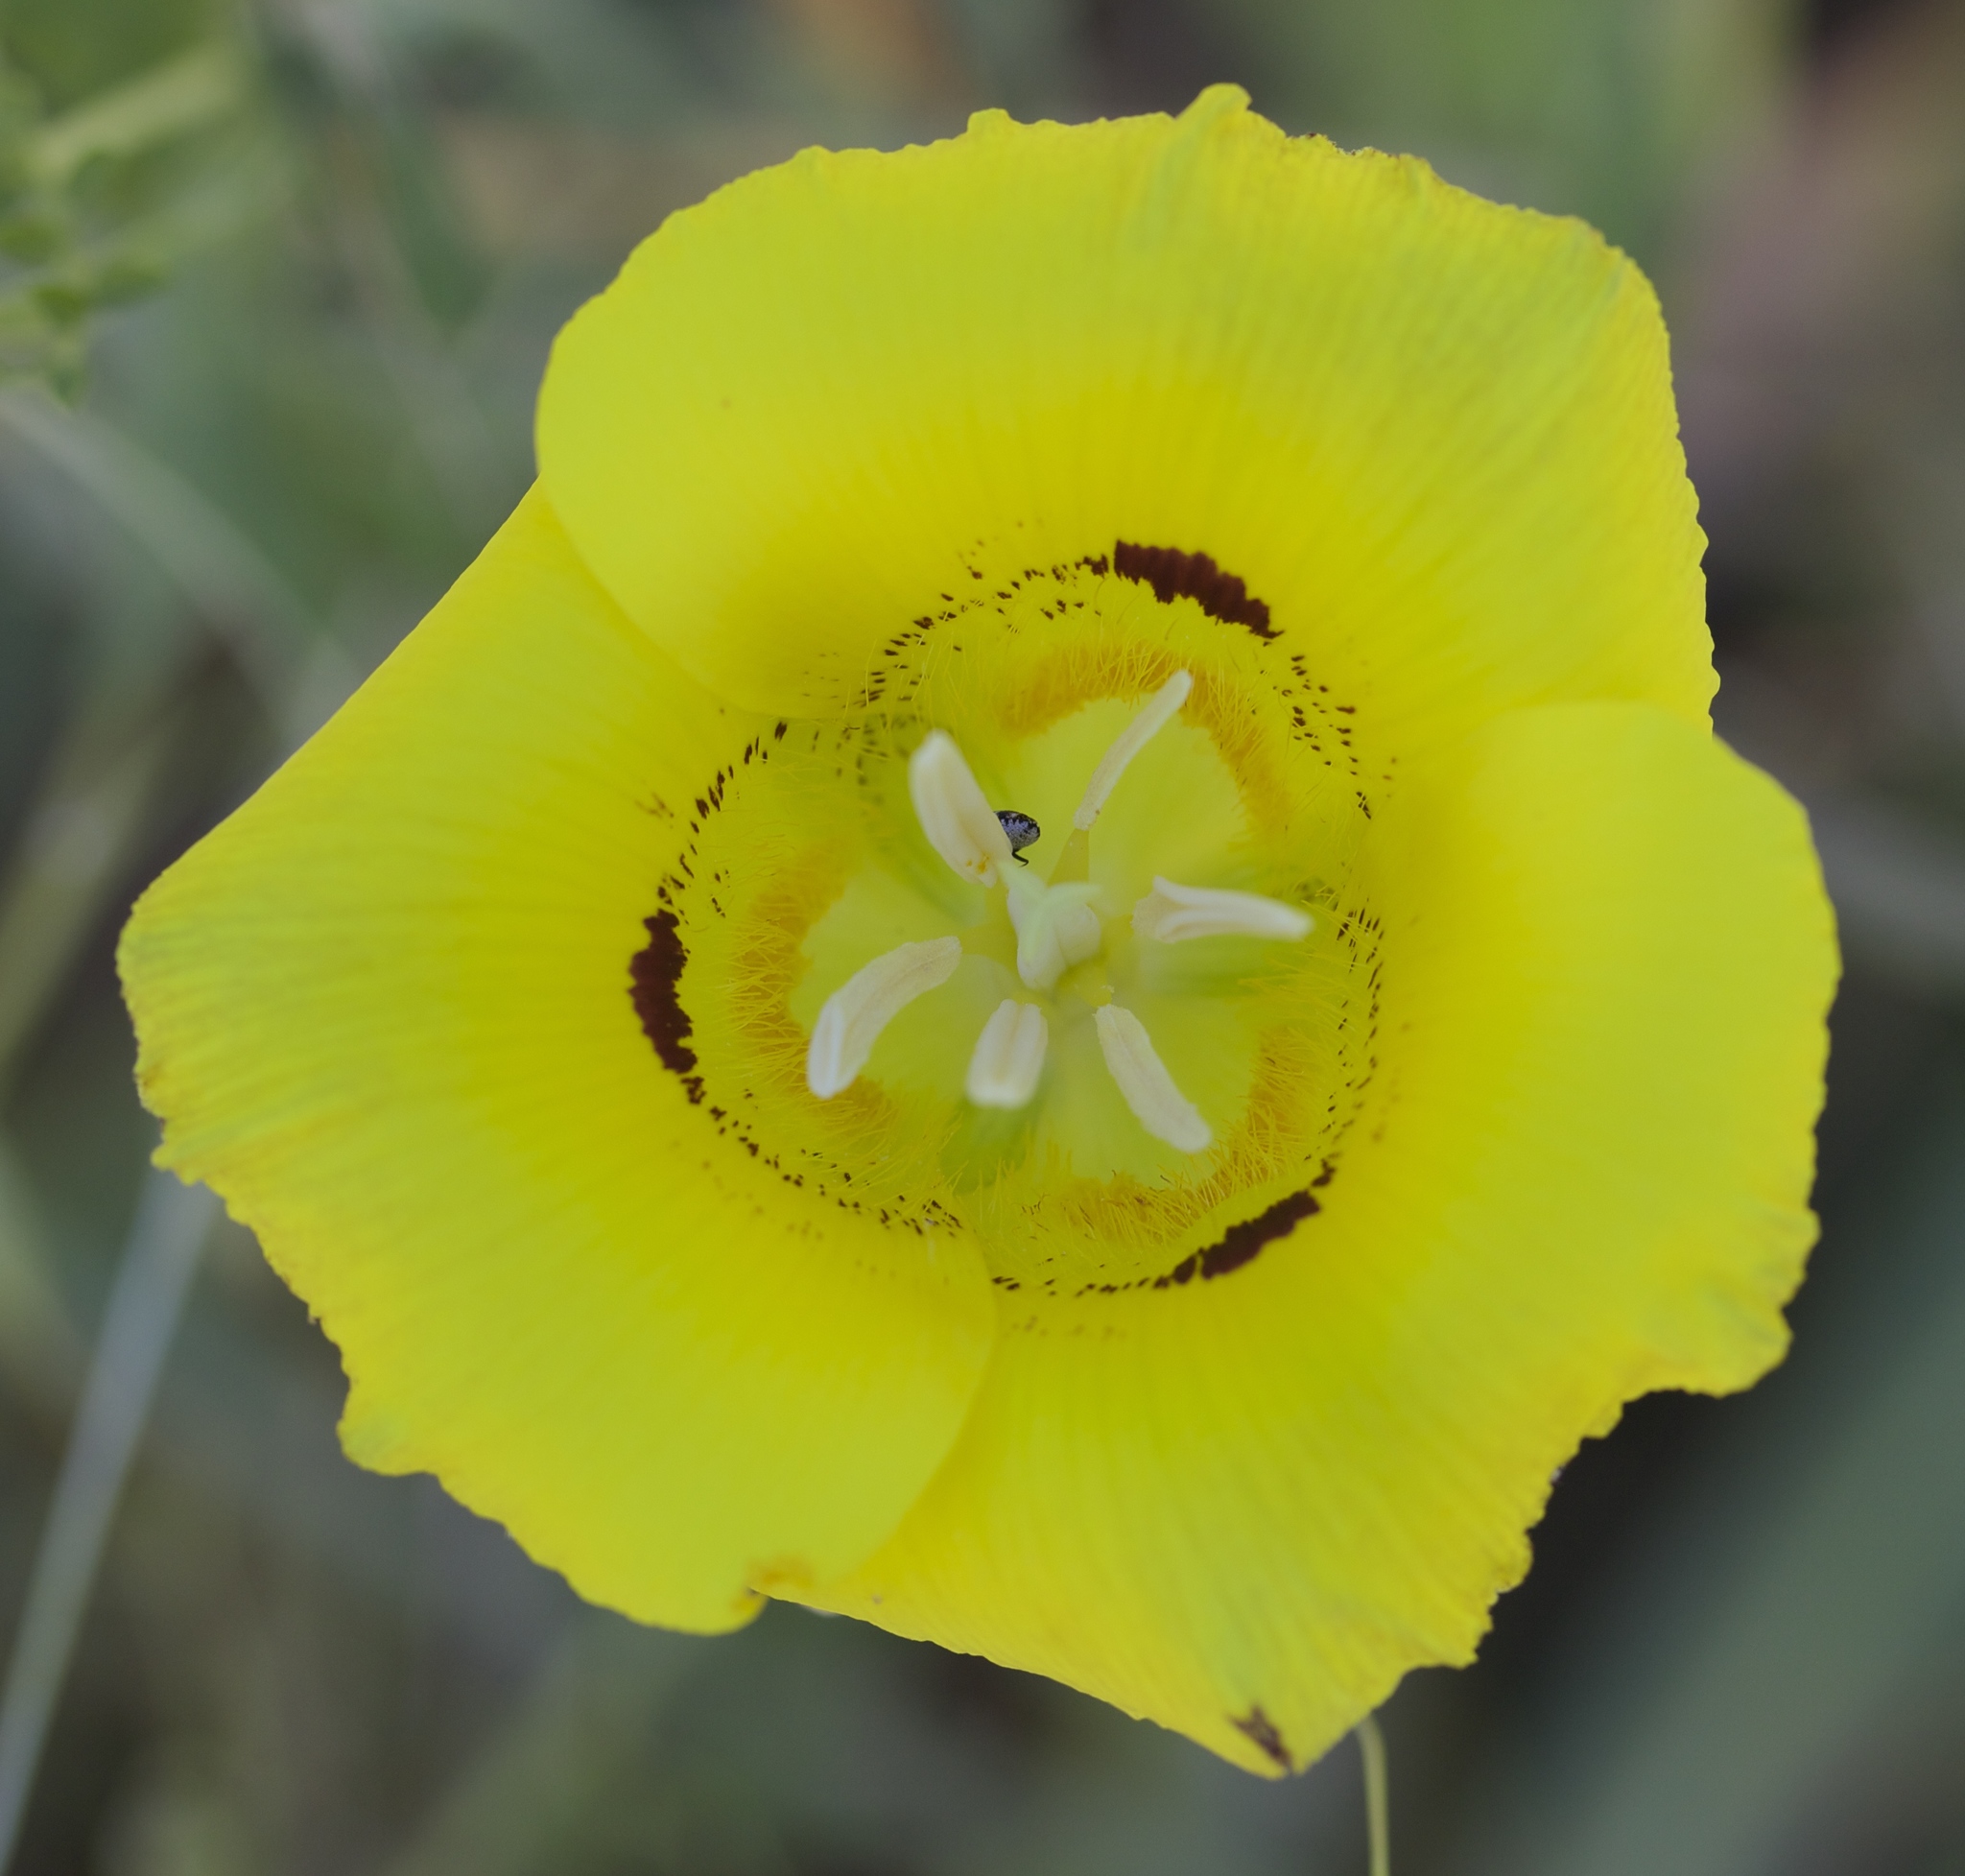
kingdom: Plantae
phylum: Tracheophyta
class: Liliopsida
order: Liliales
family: Liliaceae
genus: Calochortus
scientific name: Calochortus luteus
